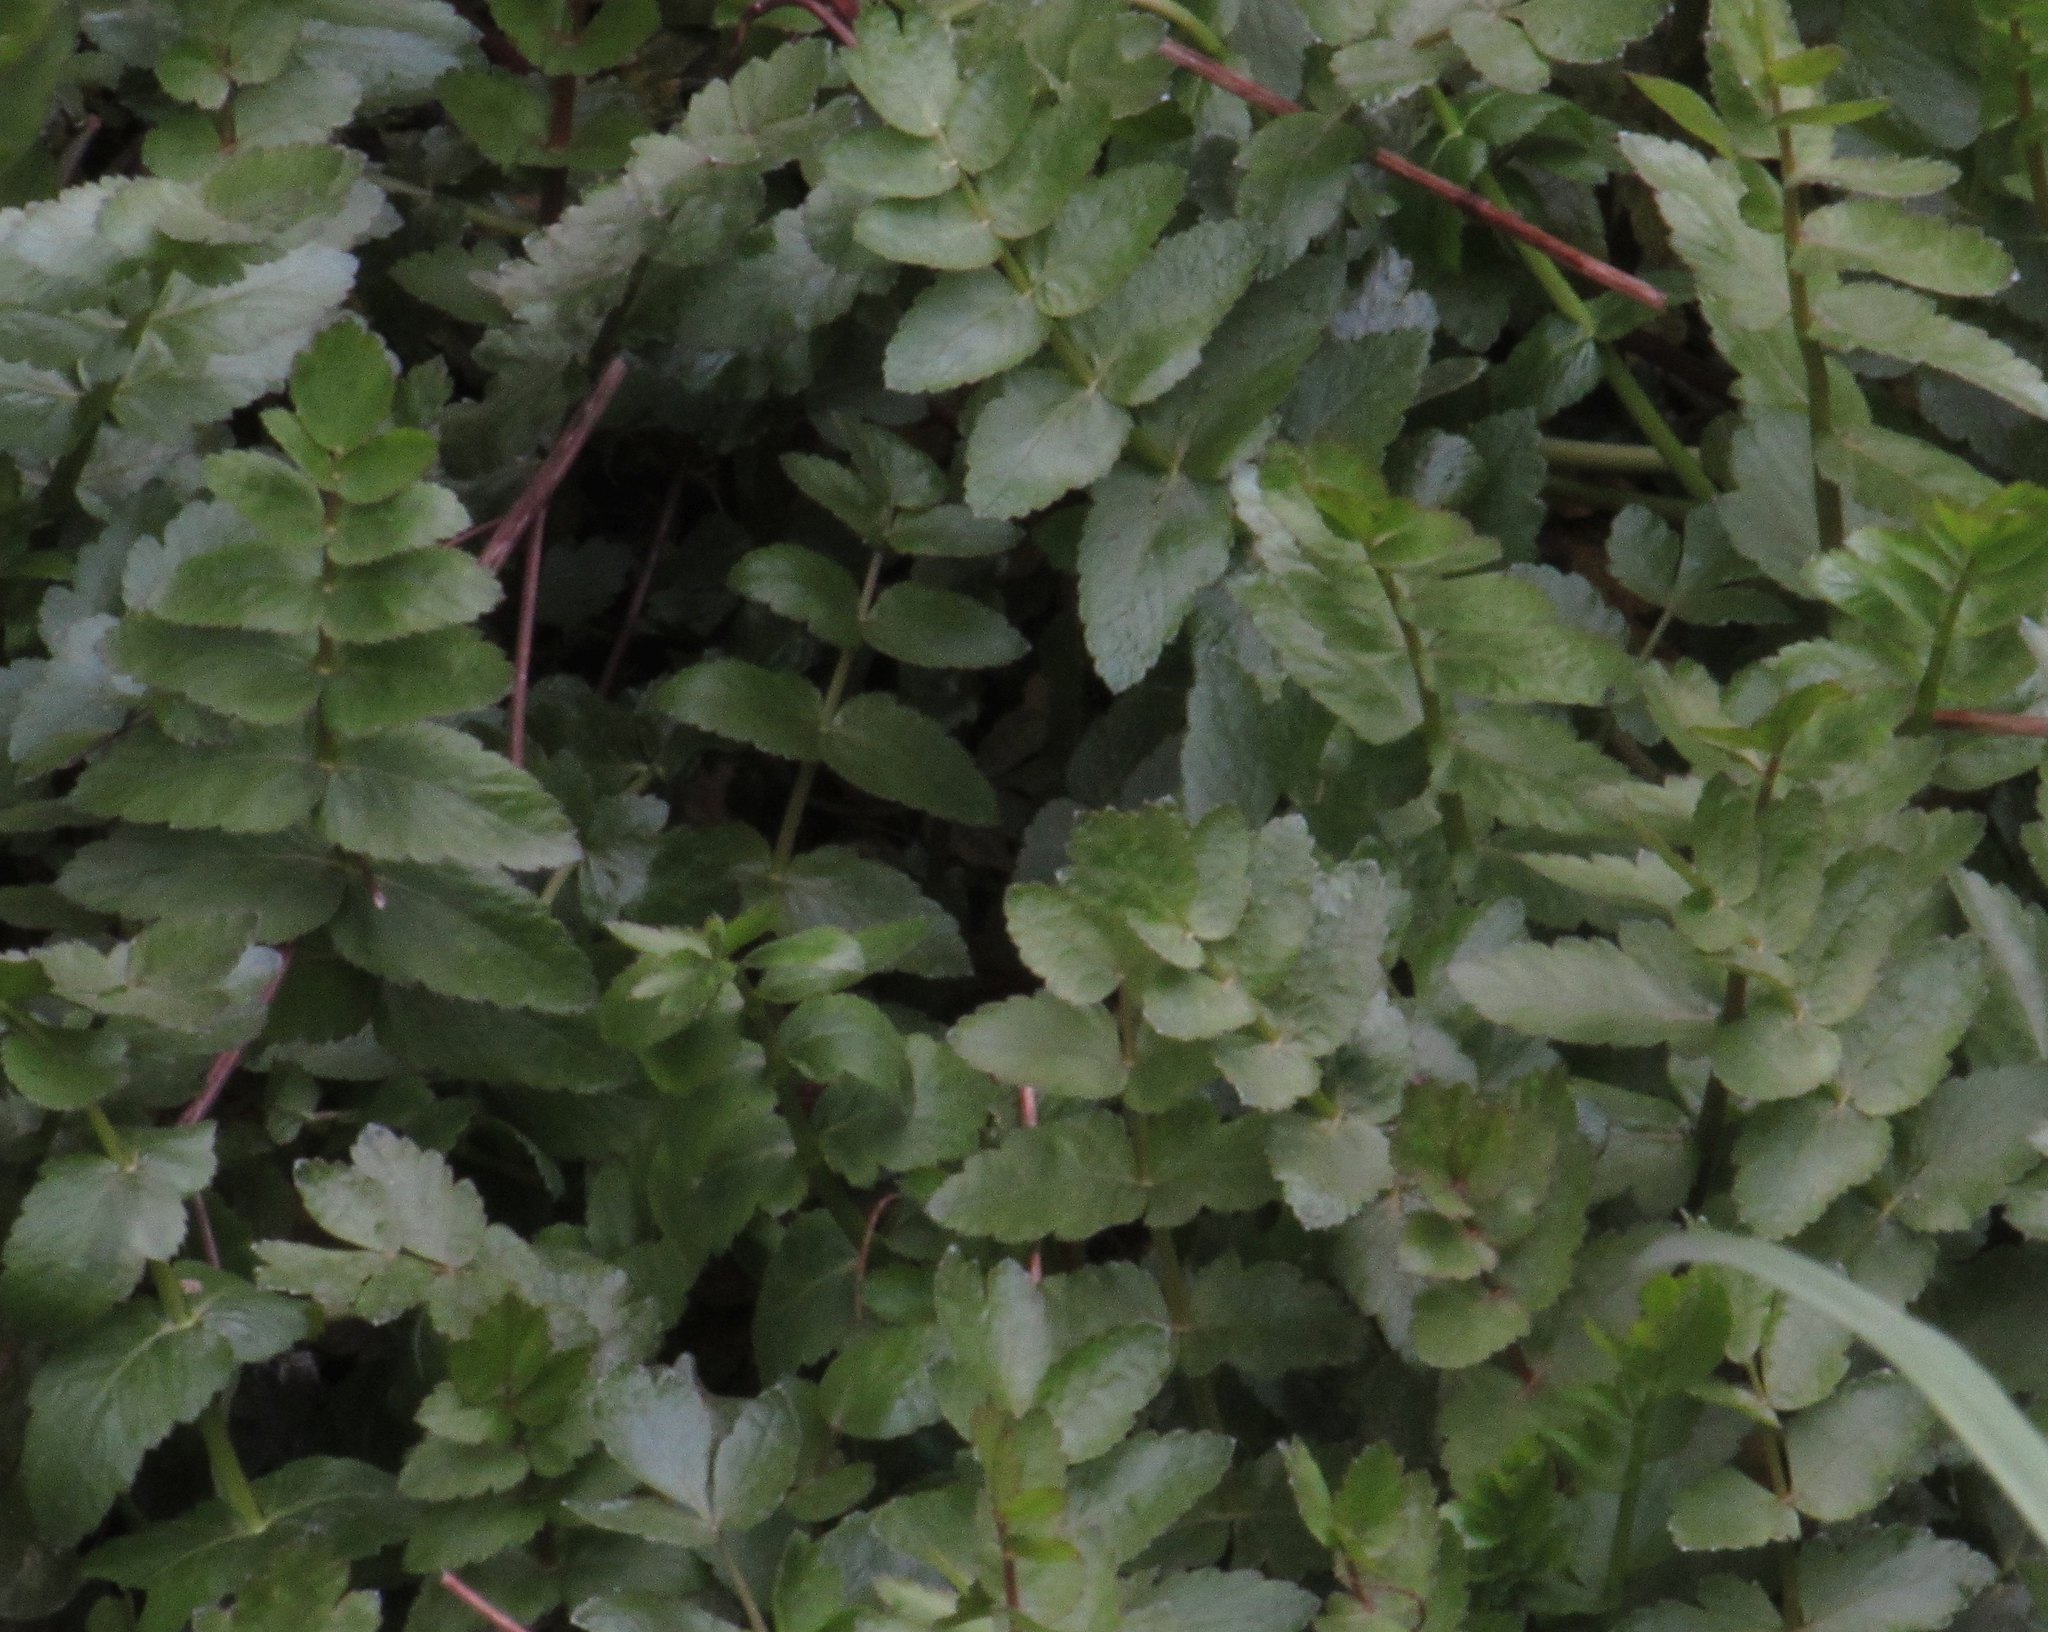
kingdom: Plantae
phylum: Tracheophyta
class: Magnoliopsida
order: Apiales
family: Apiaceae
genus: Berula
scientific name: Berula erecta
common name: Lesser water-parsnip
